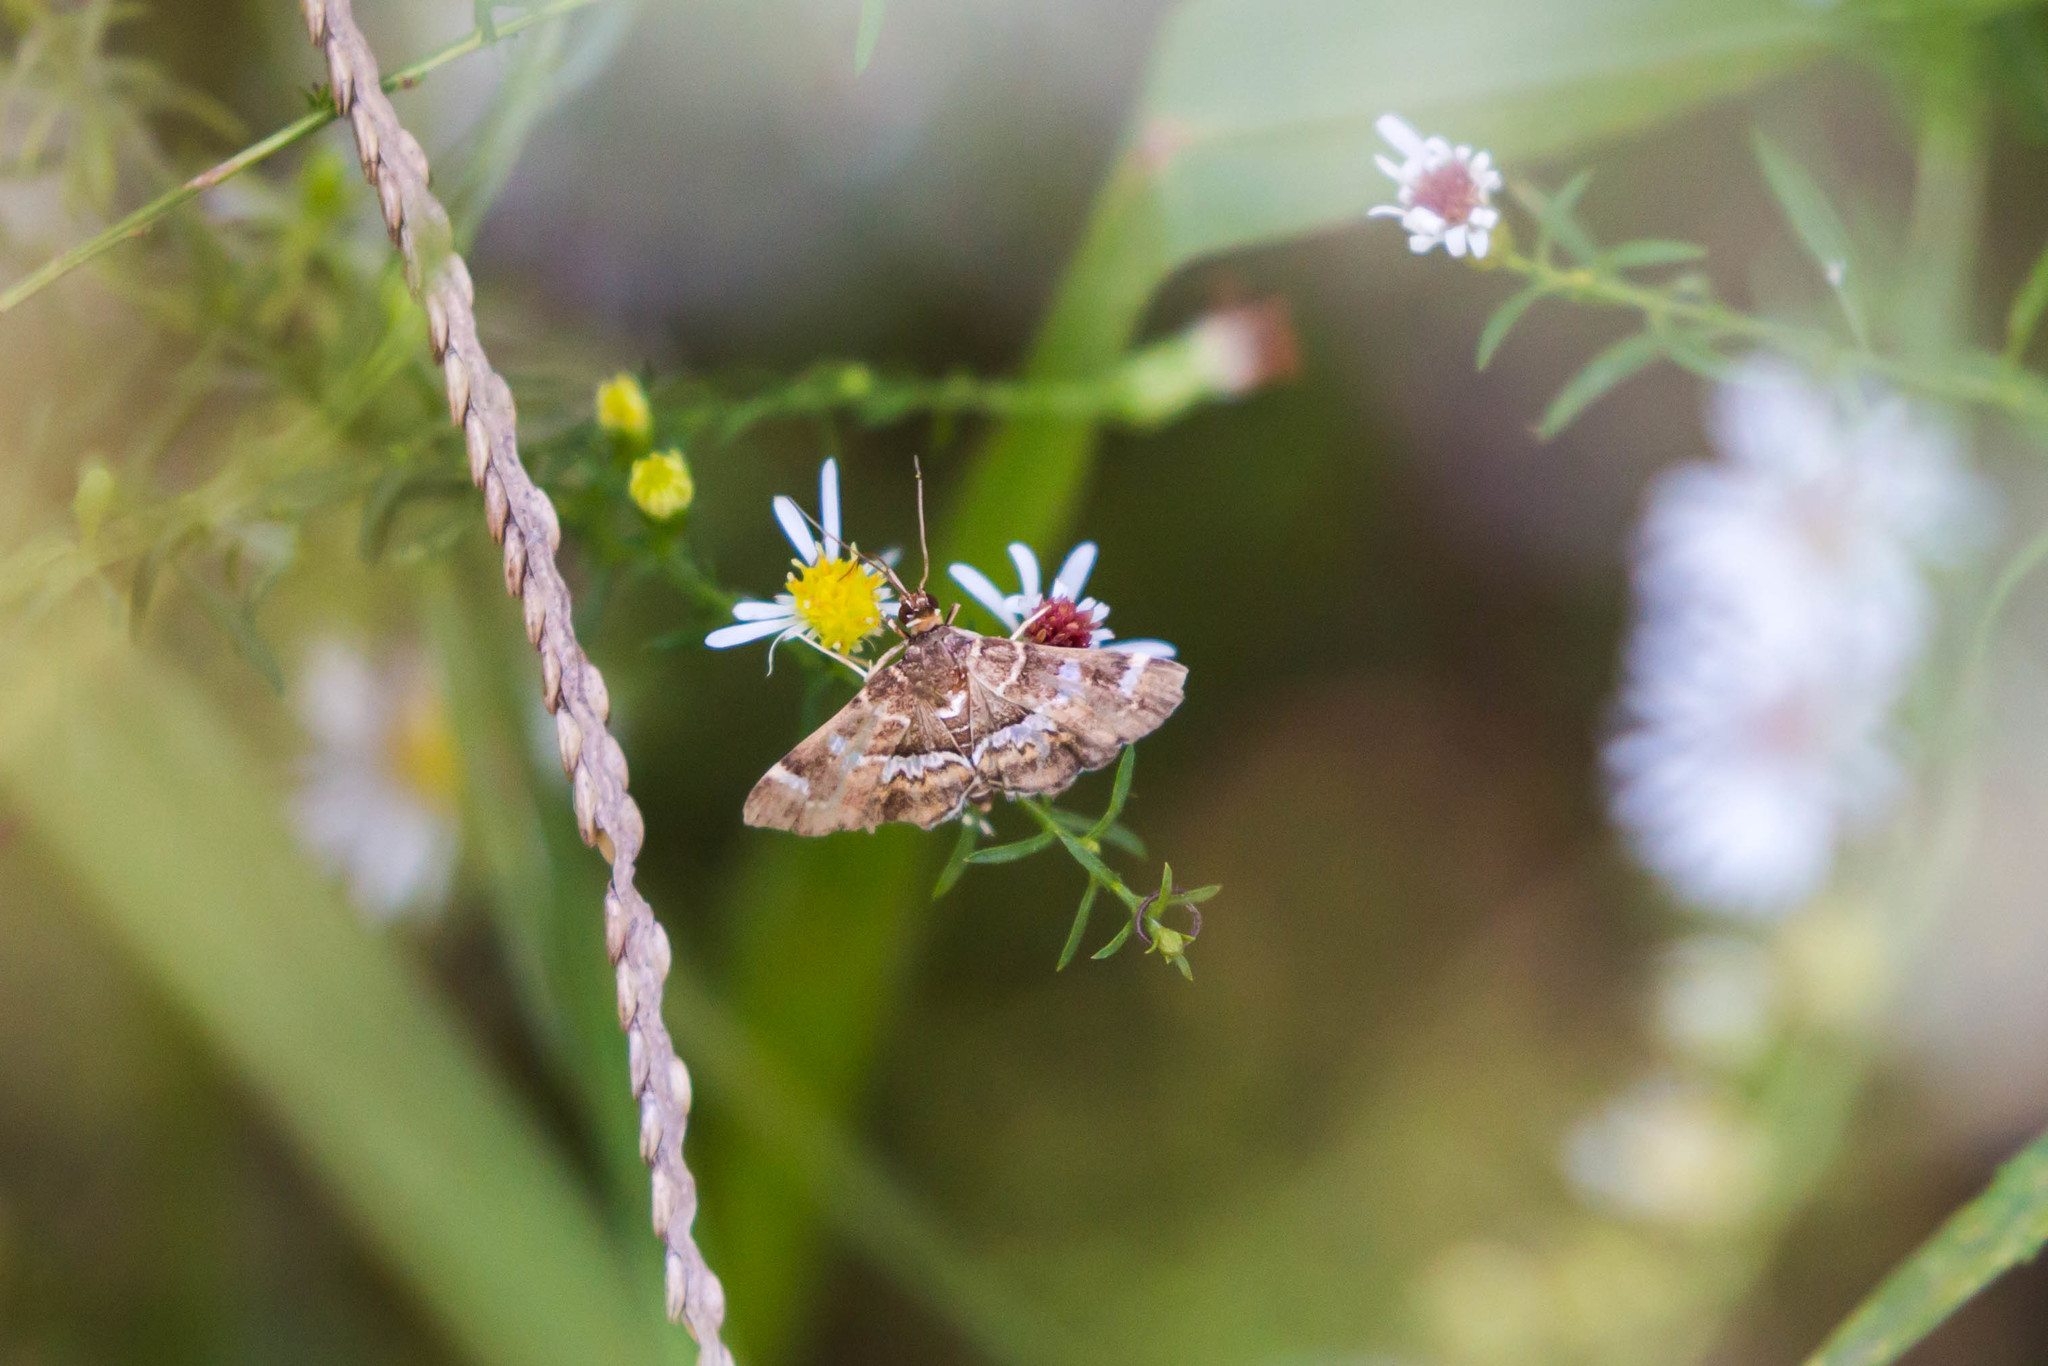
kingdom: Animalia
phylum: Arthropoda
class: Insecta
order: Lepidoptera
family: Crambidae
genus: Hymenia
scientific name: Hymenia perspectalis
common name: Spotted beet webworm
